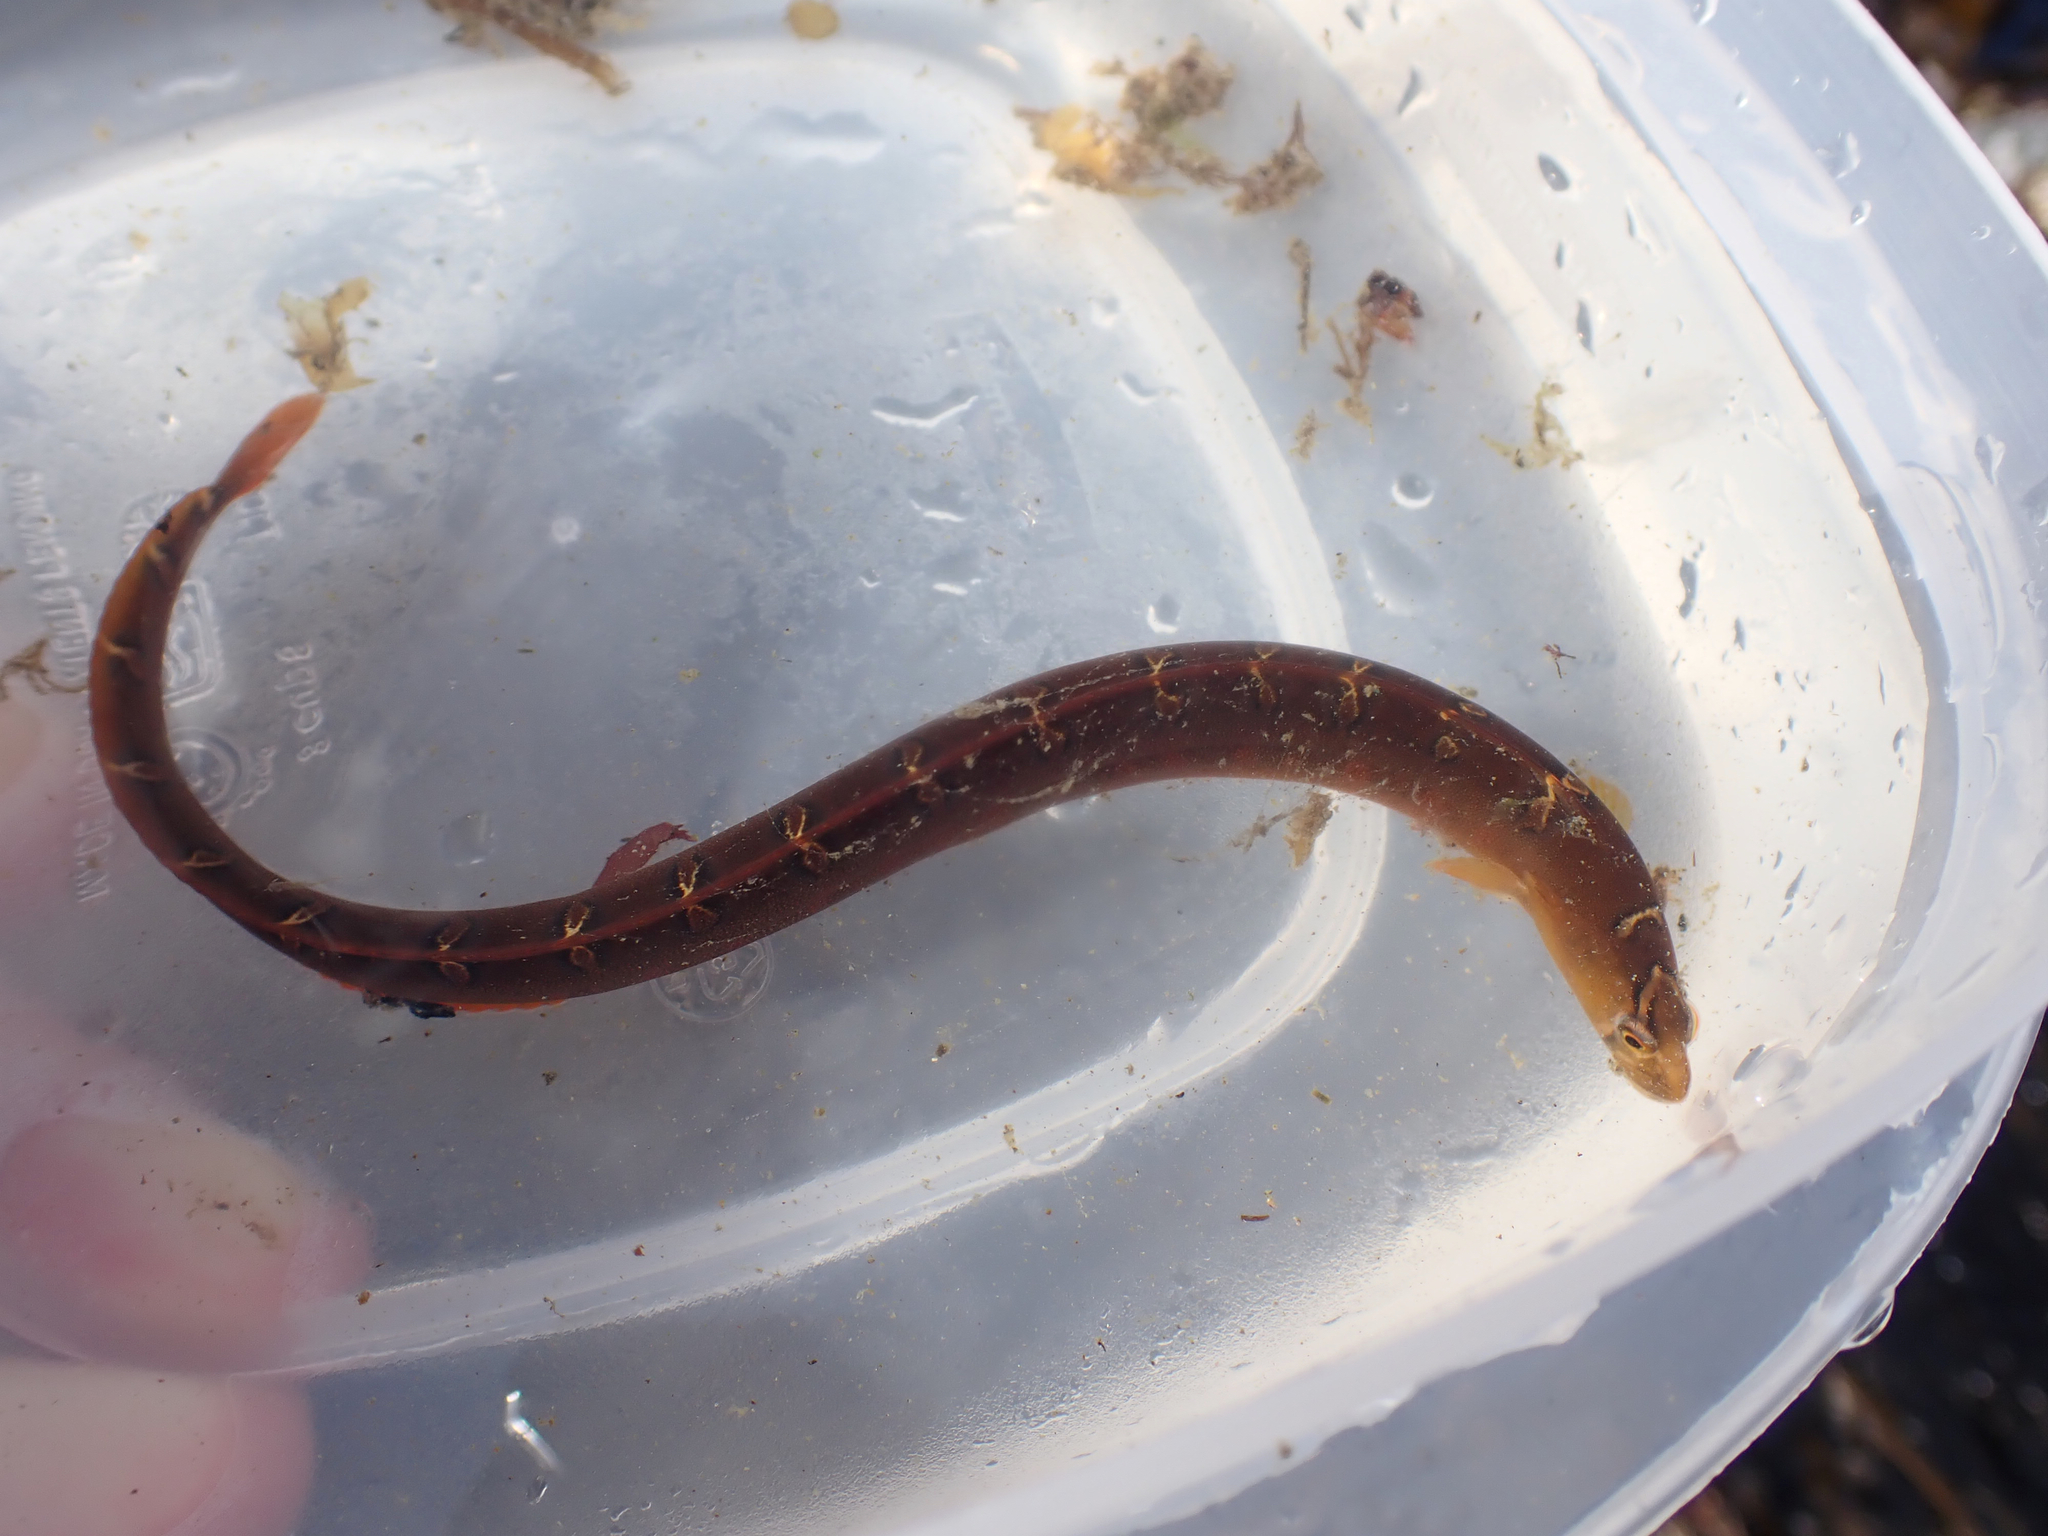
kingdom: Animalia
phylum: Chordata
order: Perciformes
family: Pholidae
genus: Pholis
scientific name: Pholis laeta
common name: Crescent gunnel
